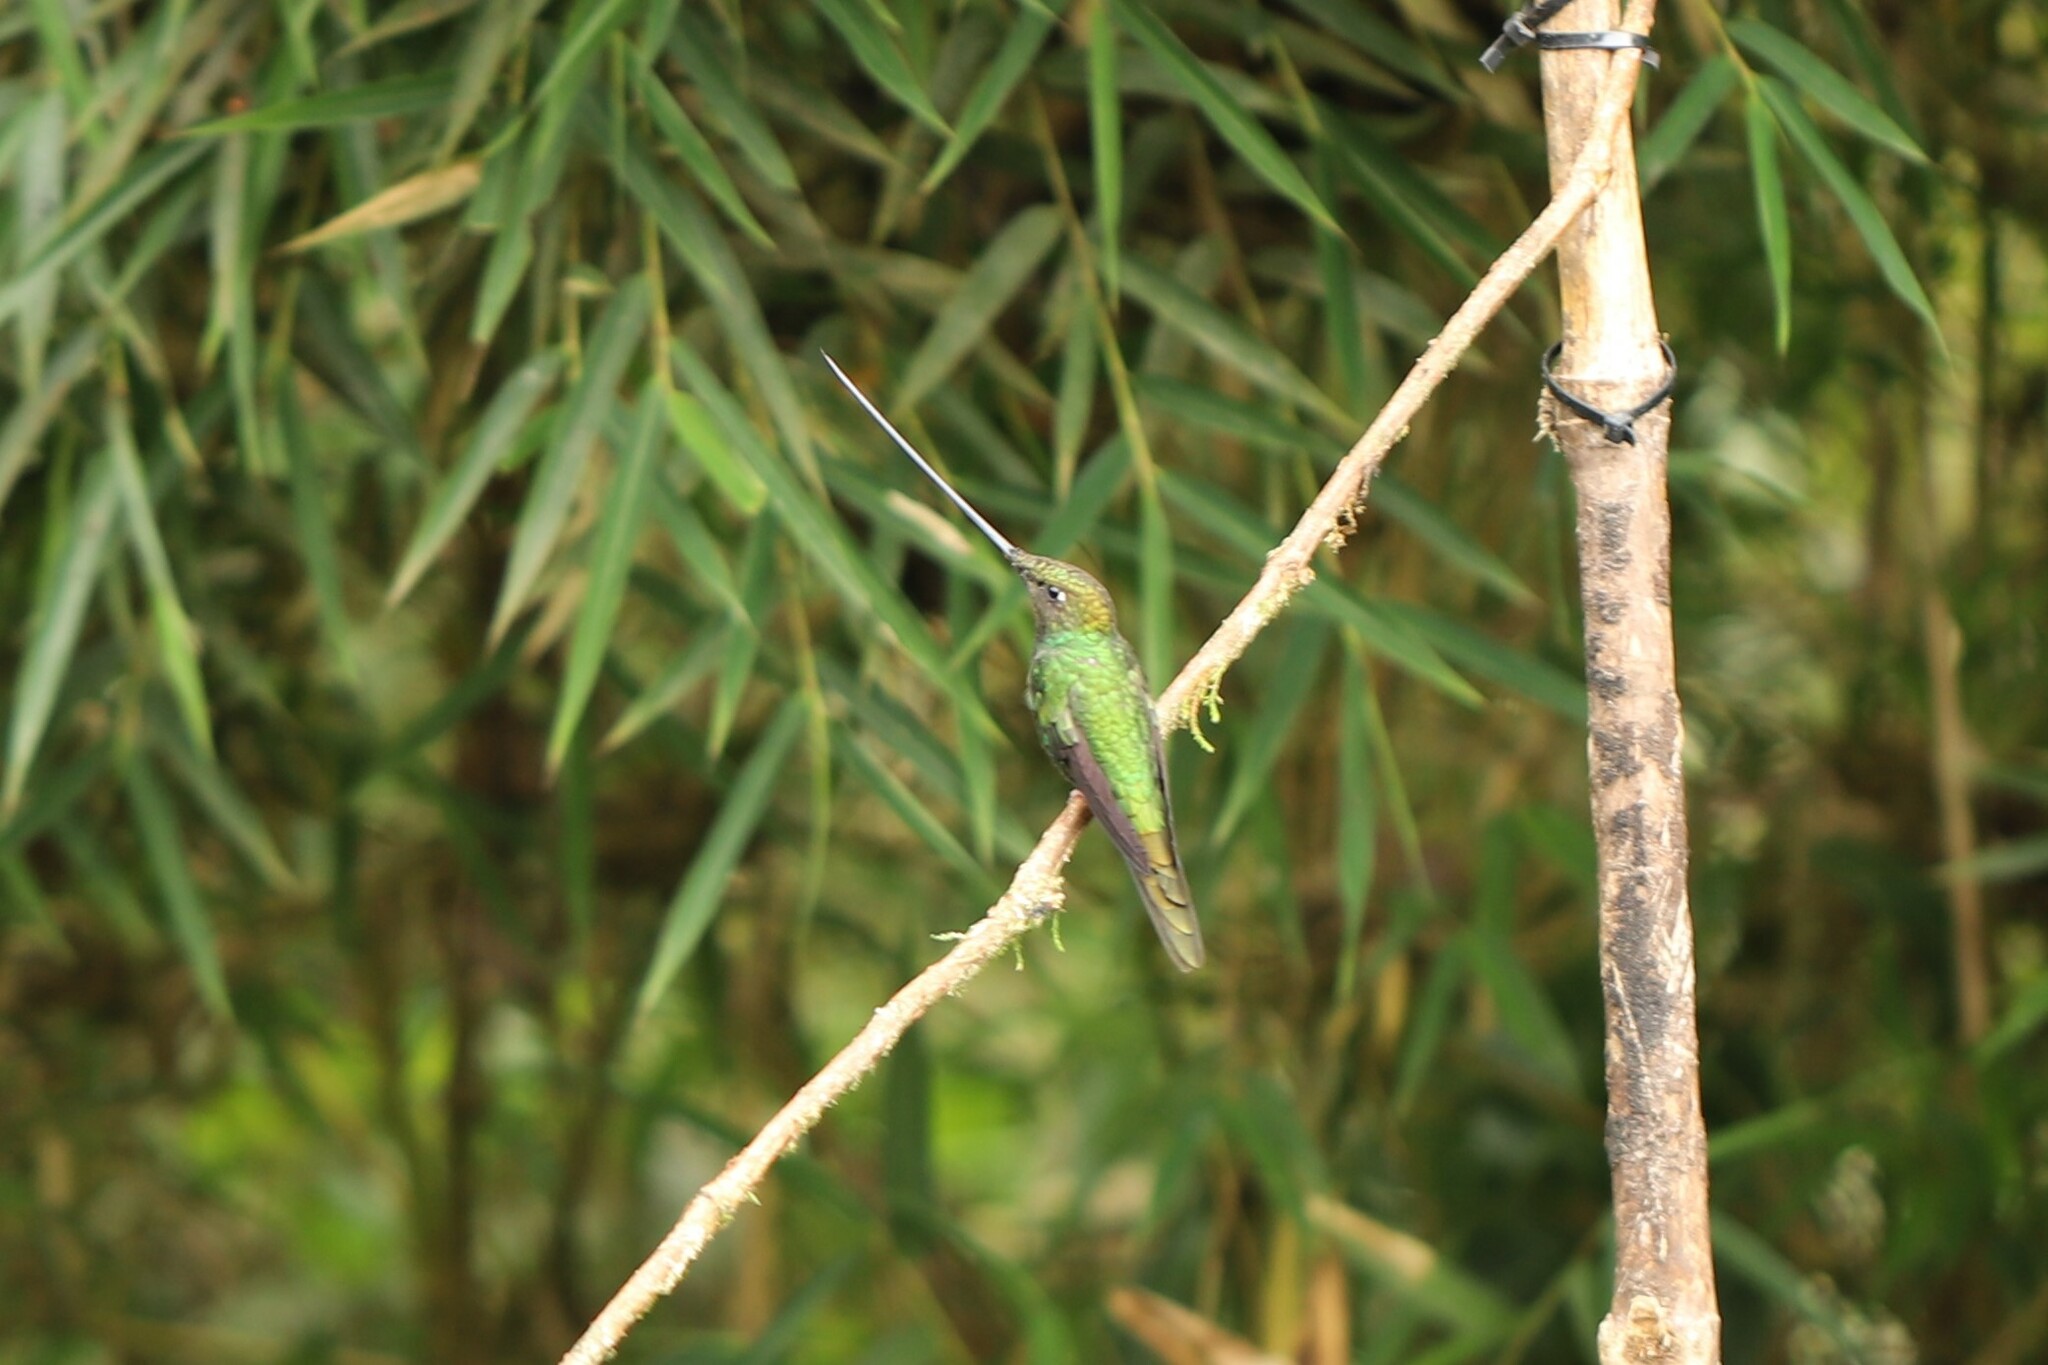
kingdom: Animalia
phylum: Chordata
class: Aves
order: Apodiformes
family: Trochilidae
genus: Ensifera
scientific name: Ensifera ensifera
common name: Sword-billed hummingbird
